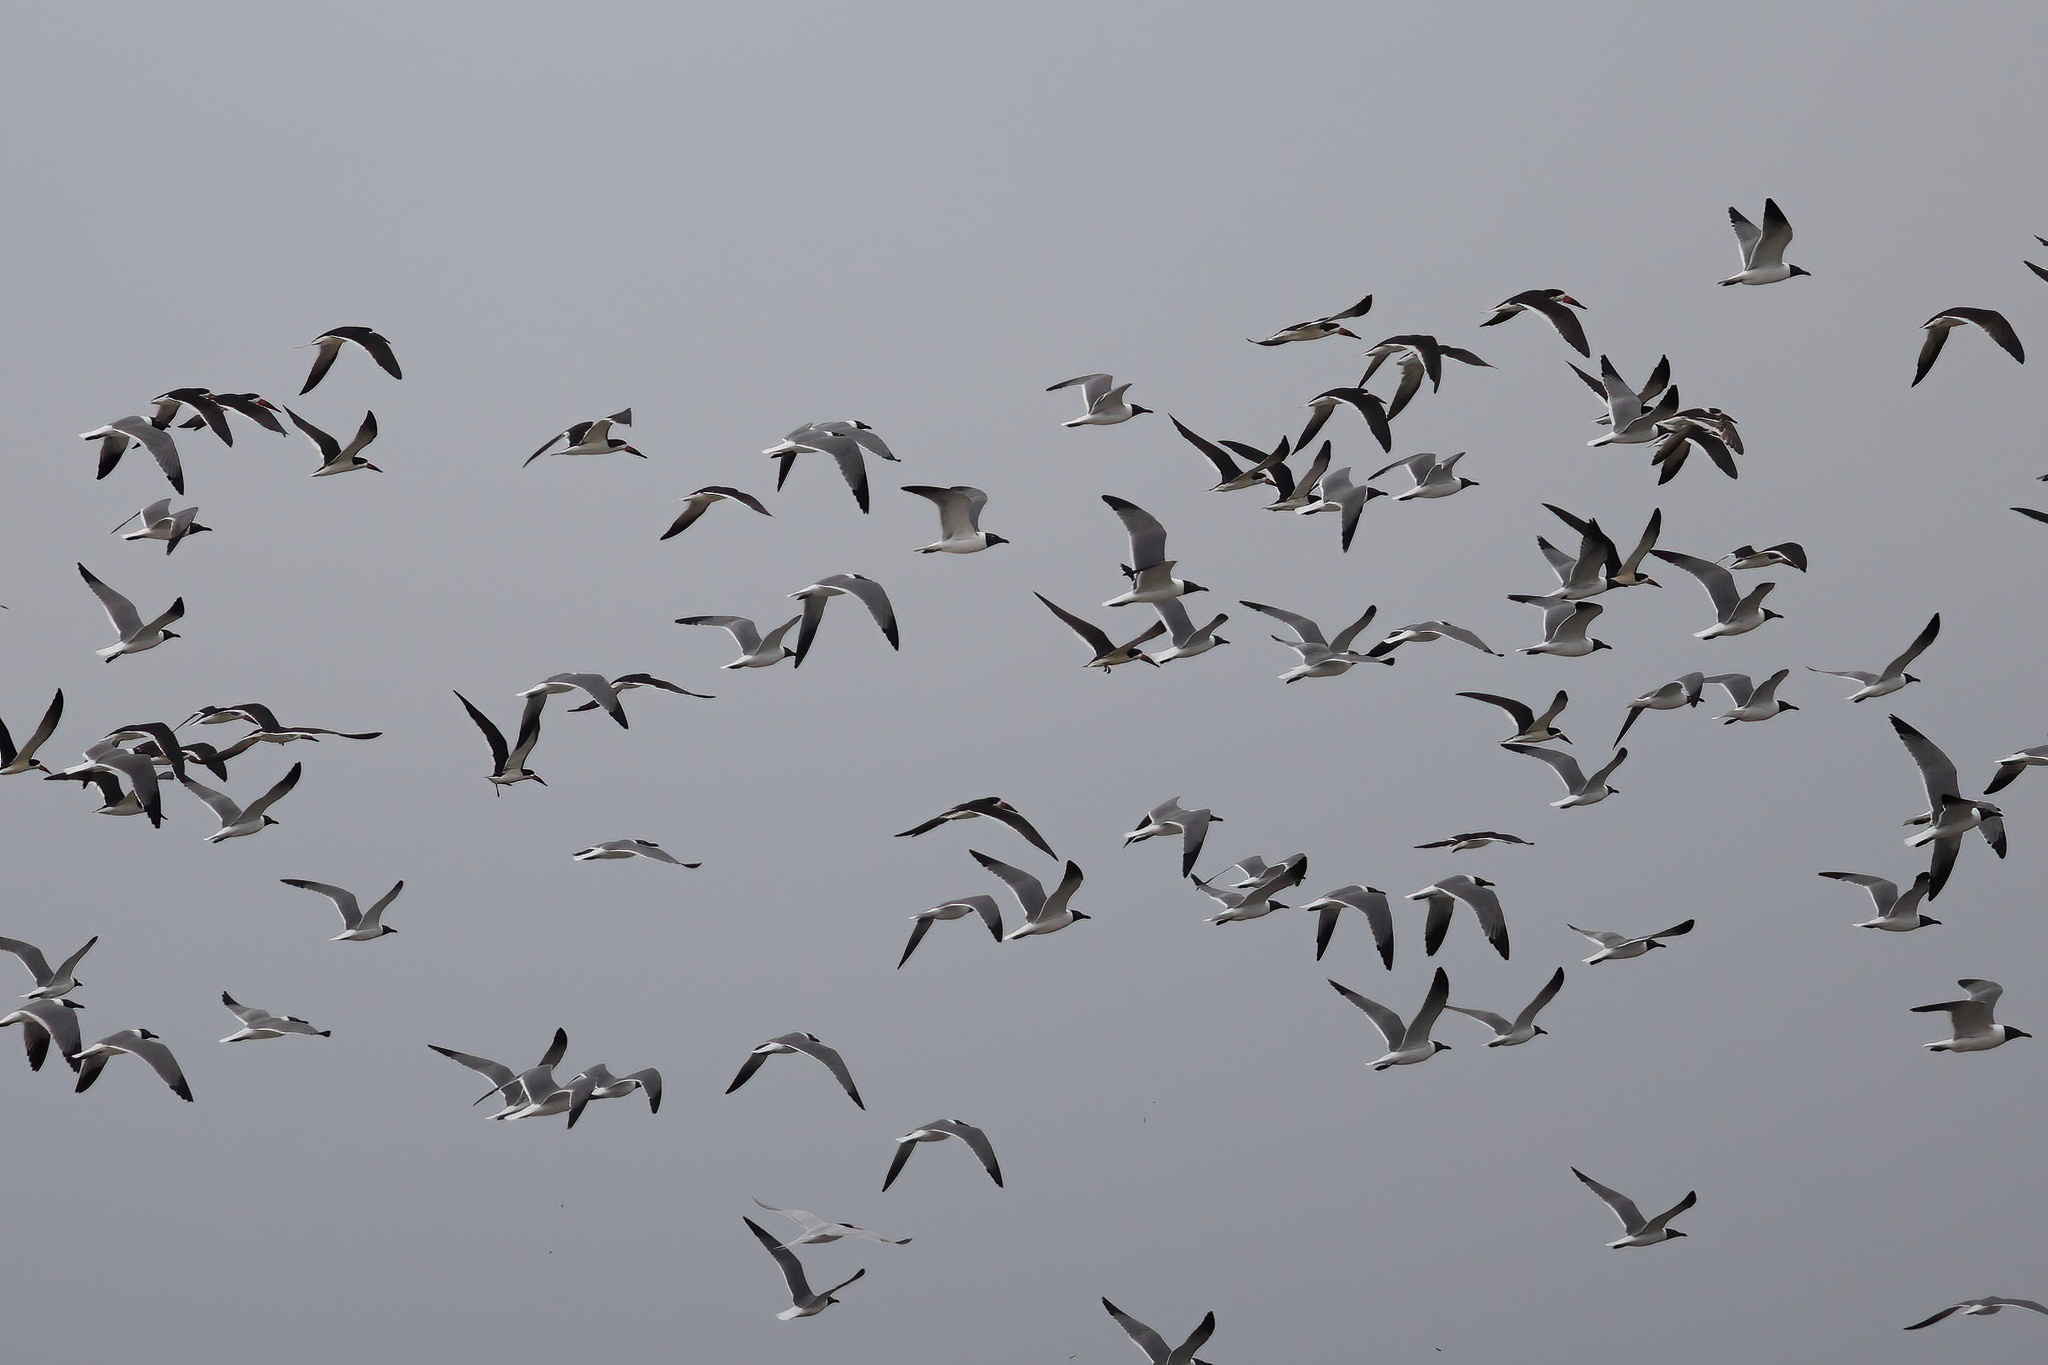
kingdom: Animalia
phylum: Chordata
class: Aves
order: Charadriiformes
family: Laridae
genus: Leucophaeus
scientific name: Leucophaeus atricilla
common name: Laughing gull
